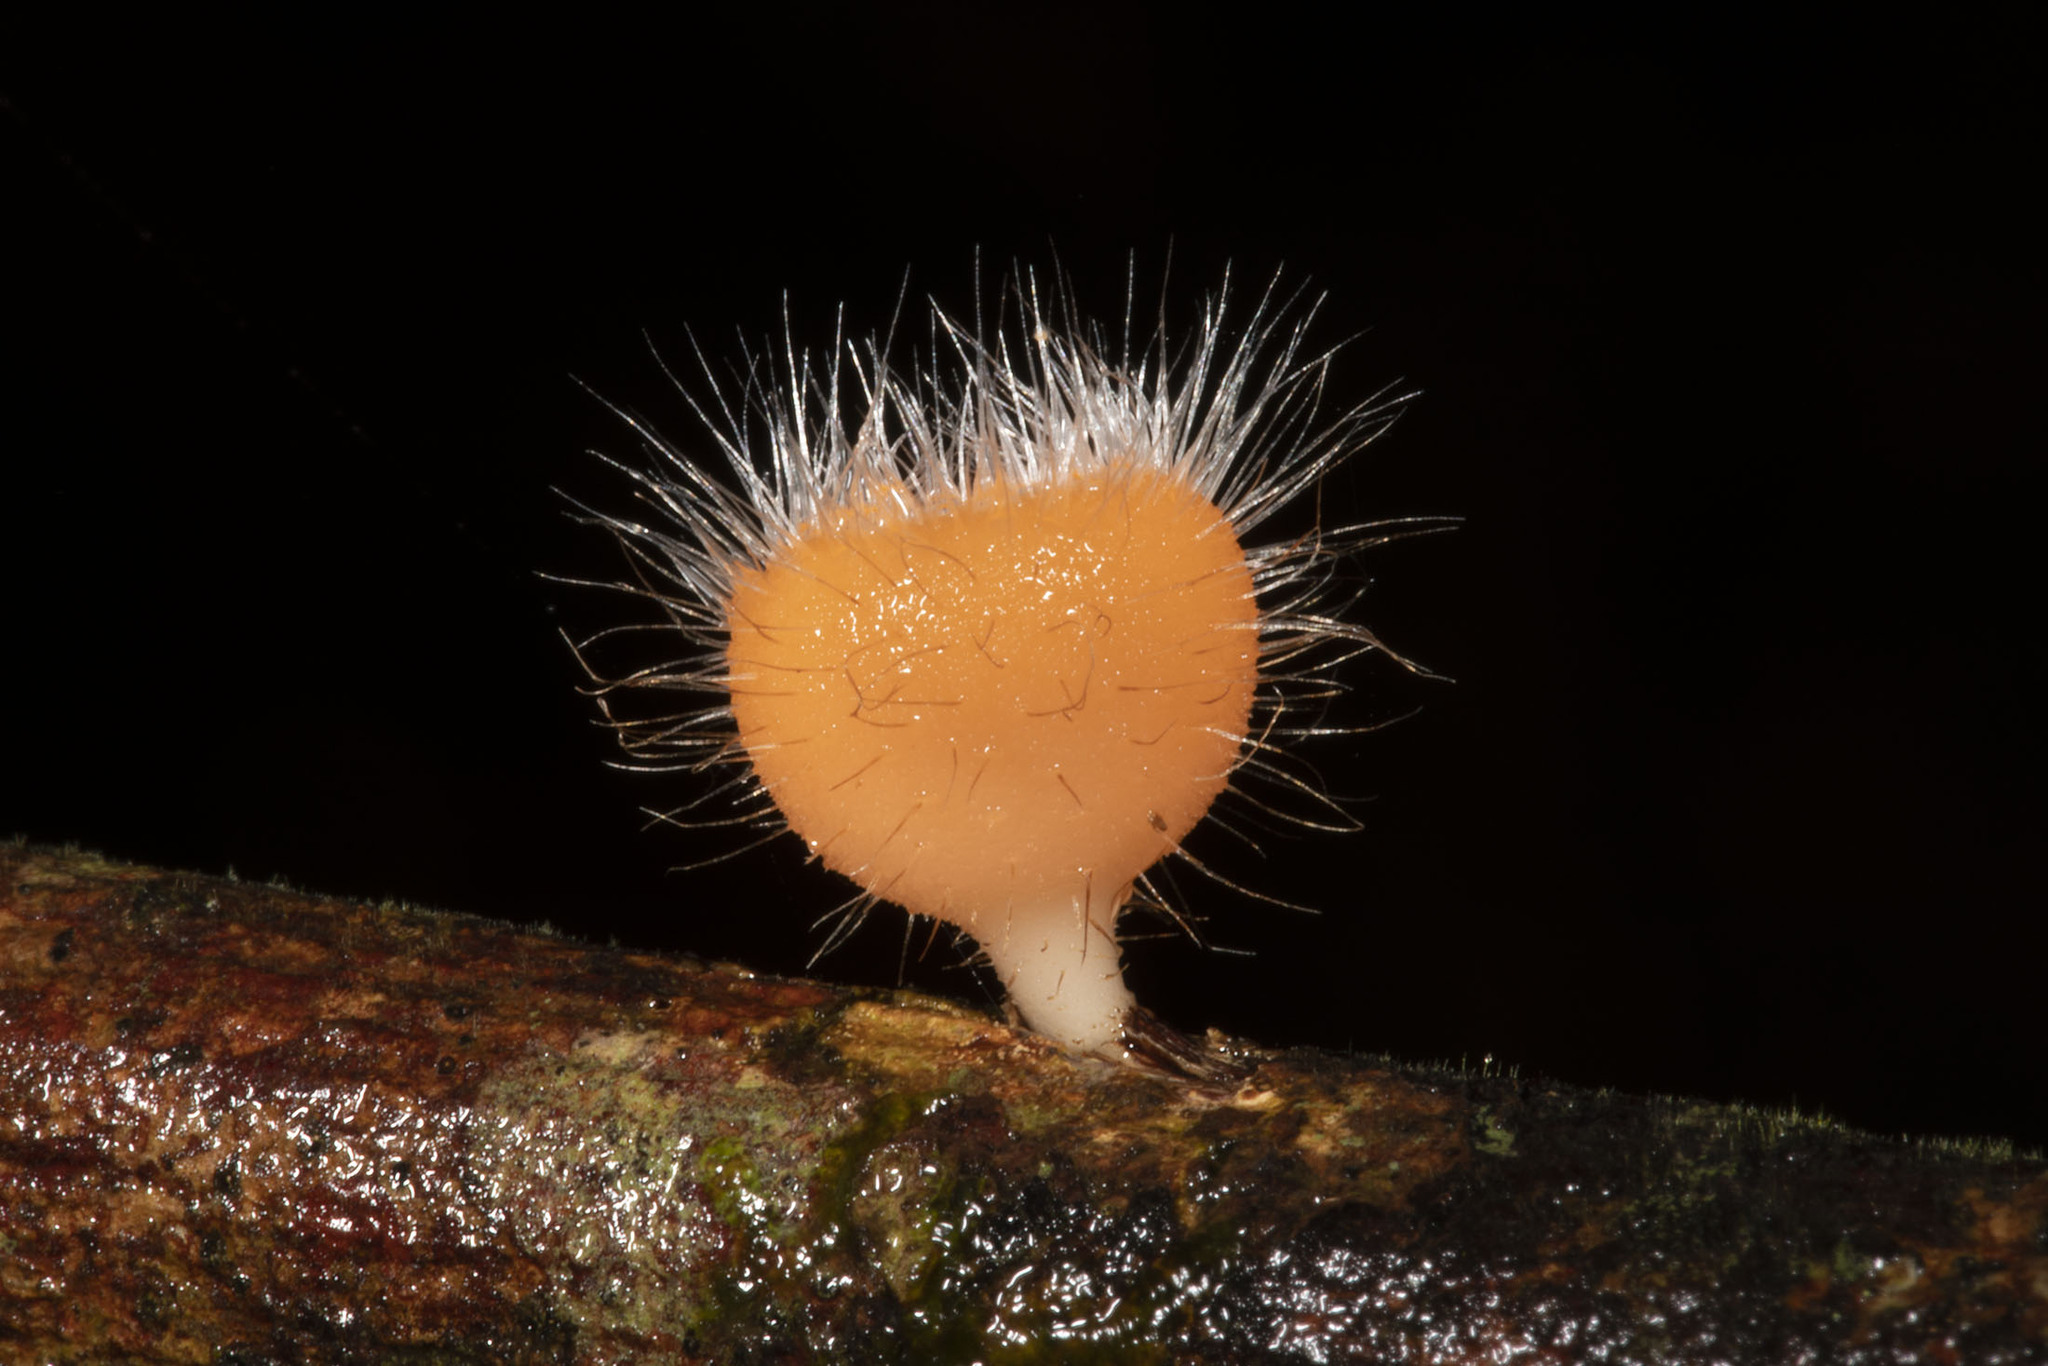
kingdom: Fungi
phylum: Ascomycota
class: Pezizomycetes
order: Pezizales
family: Sarcoscyphaceae
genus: Cookeina
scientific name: Cookeina tricholoma
